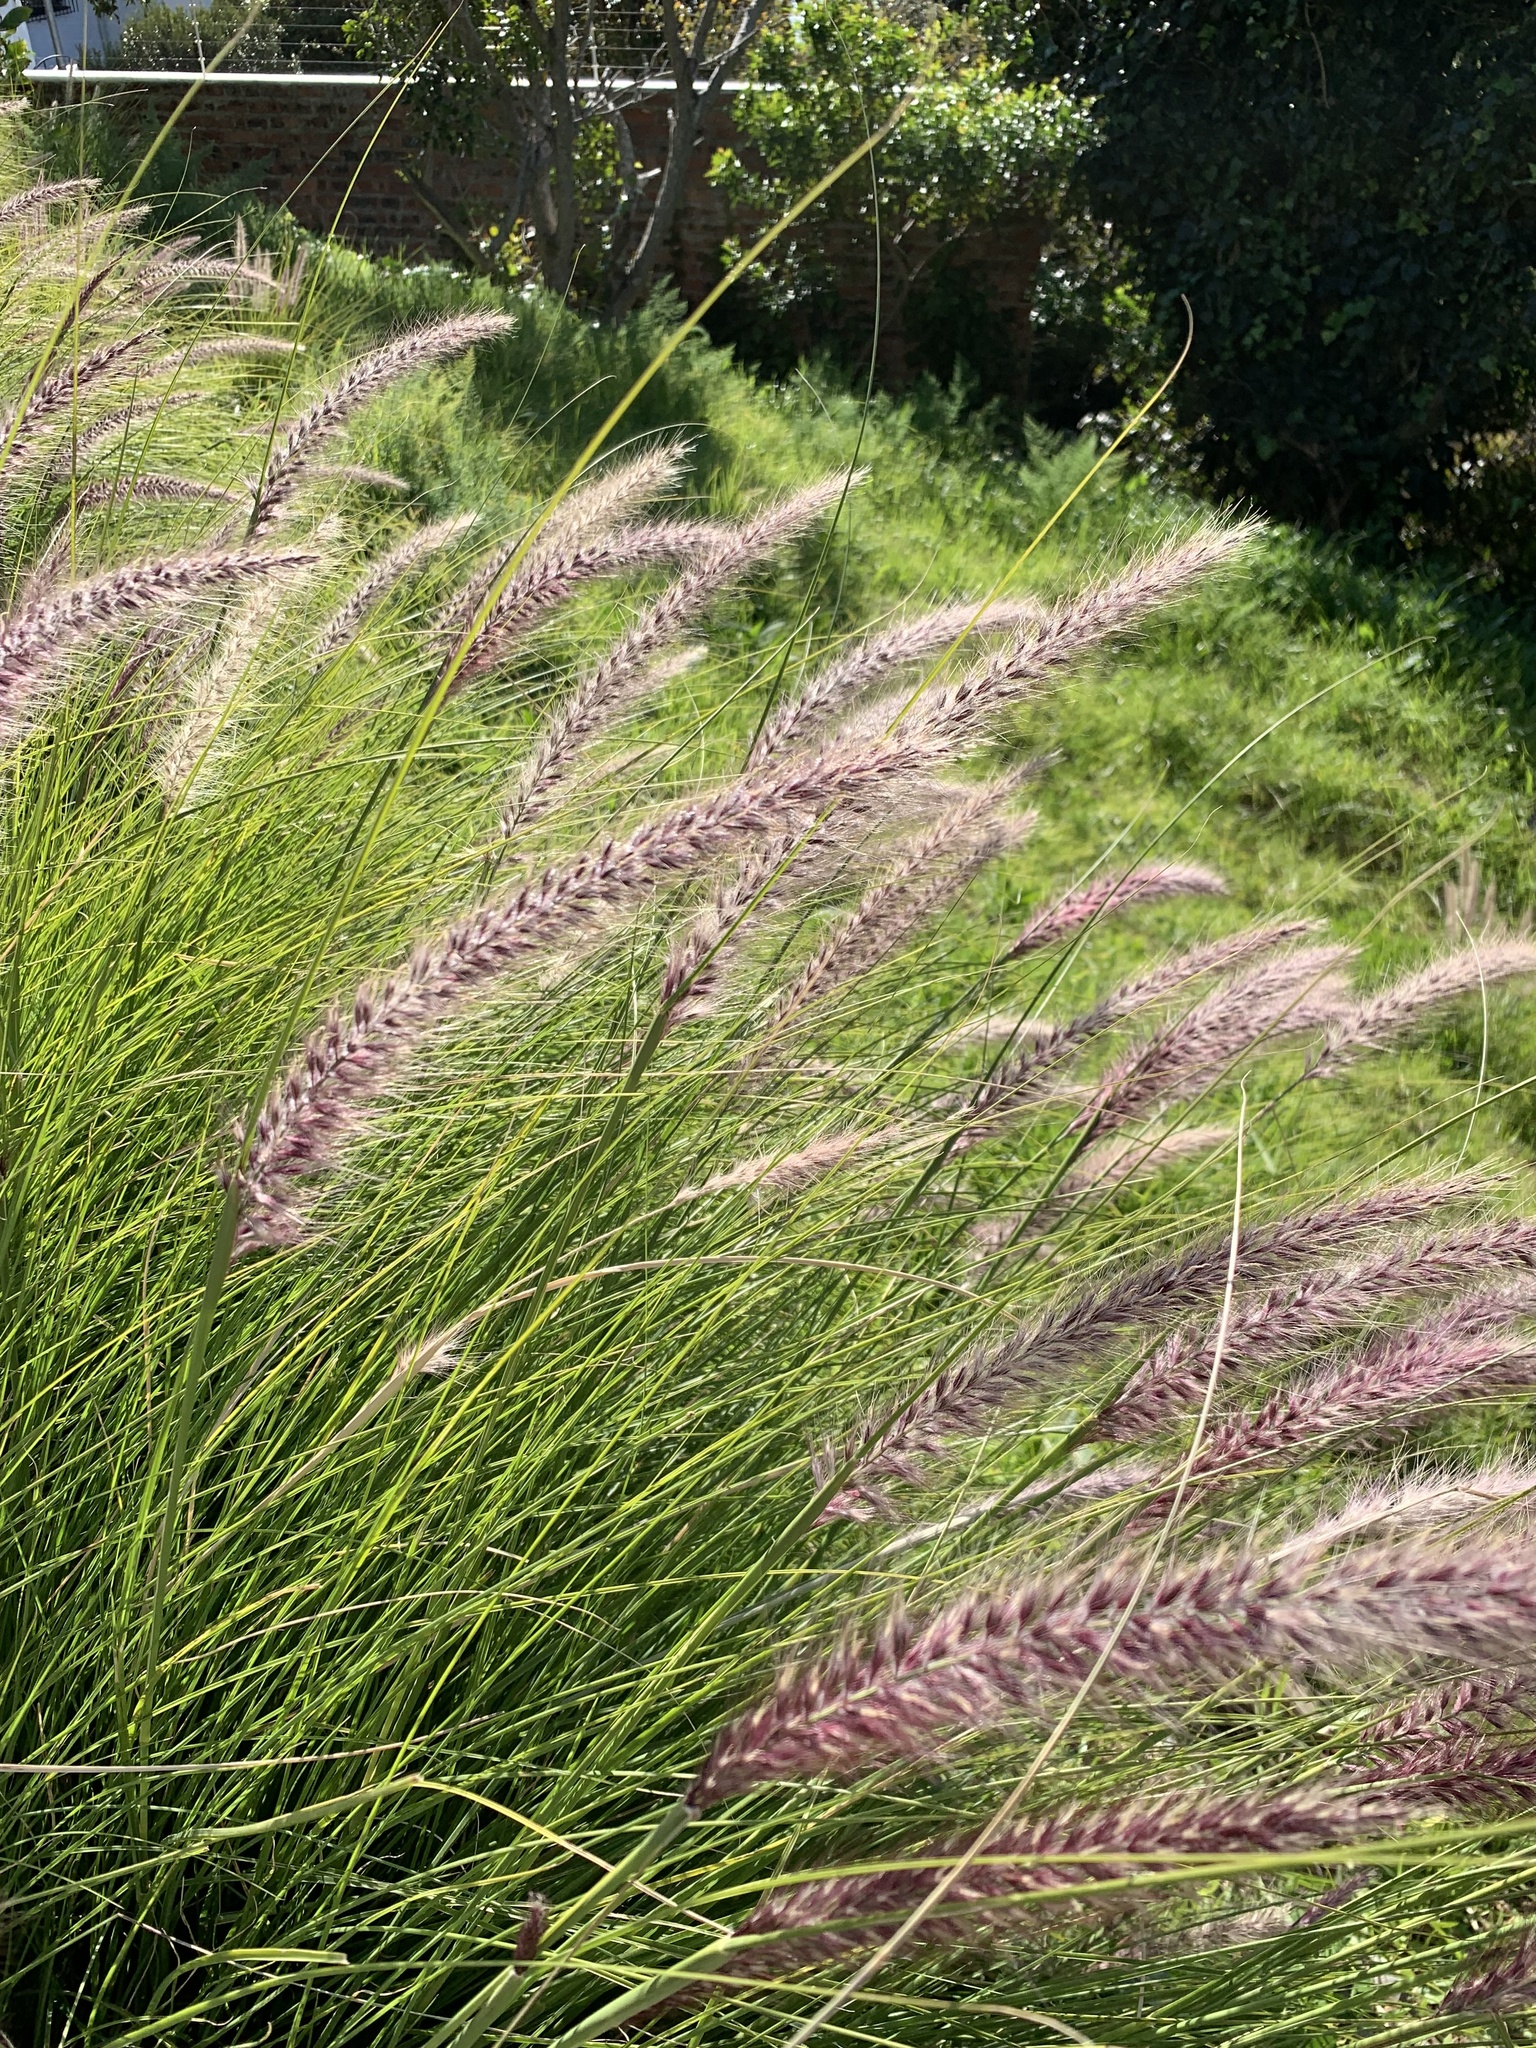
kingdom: Plantae
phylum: Tracheophyta
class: Liliopsida
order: Poales
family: Poaceae
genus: Cenchrus
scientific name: Cenchrus setaceus
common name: Crimson fountaingrass
